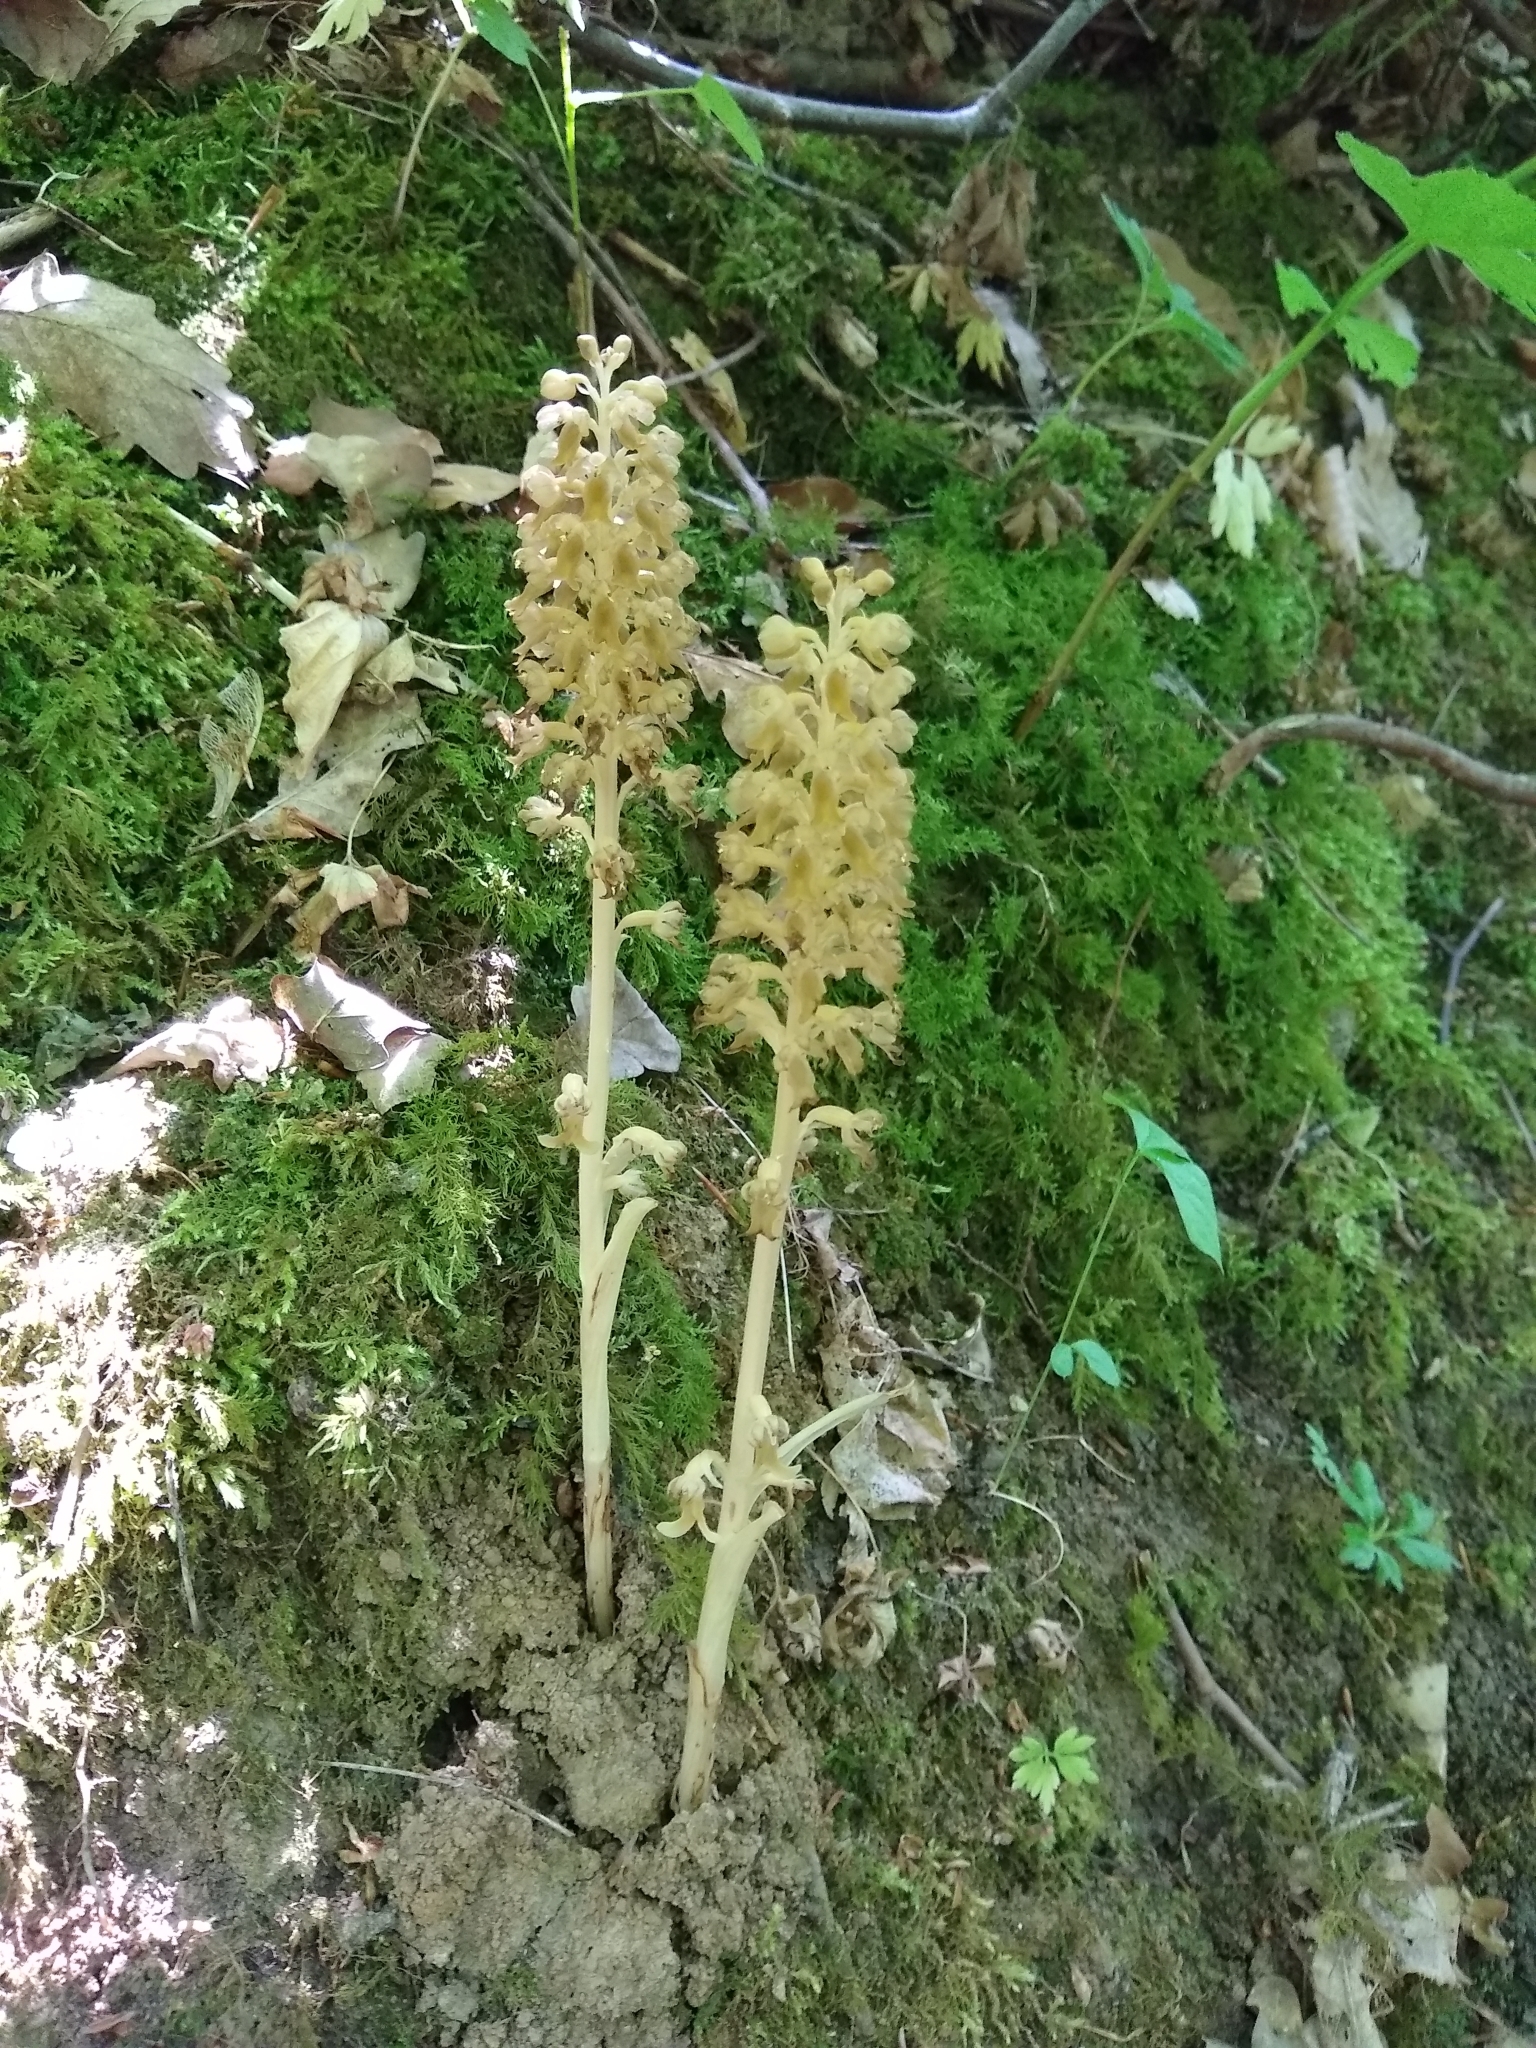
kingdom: Plantae
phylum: Tracheophyta
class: Liliopsida
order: Asparagales
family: Orchidaceae
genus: Neottia
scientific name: Neottia nidus-avis
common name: Bird's-nest orchid
